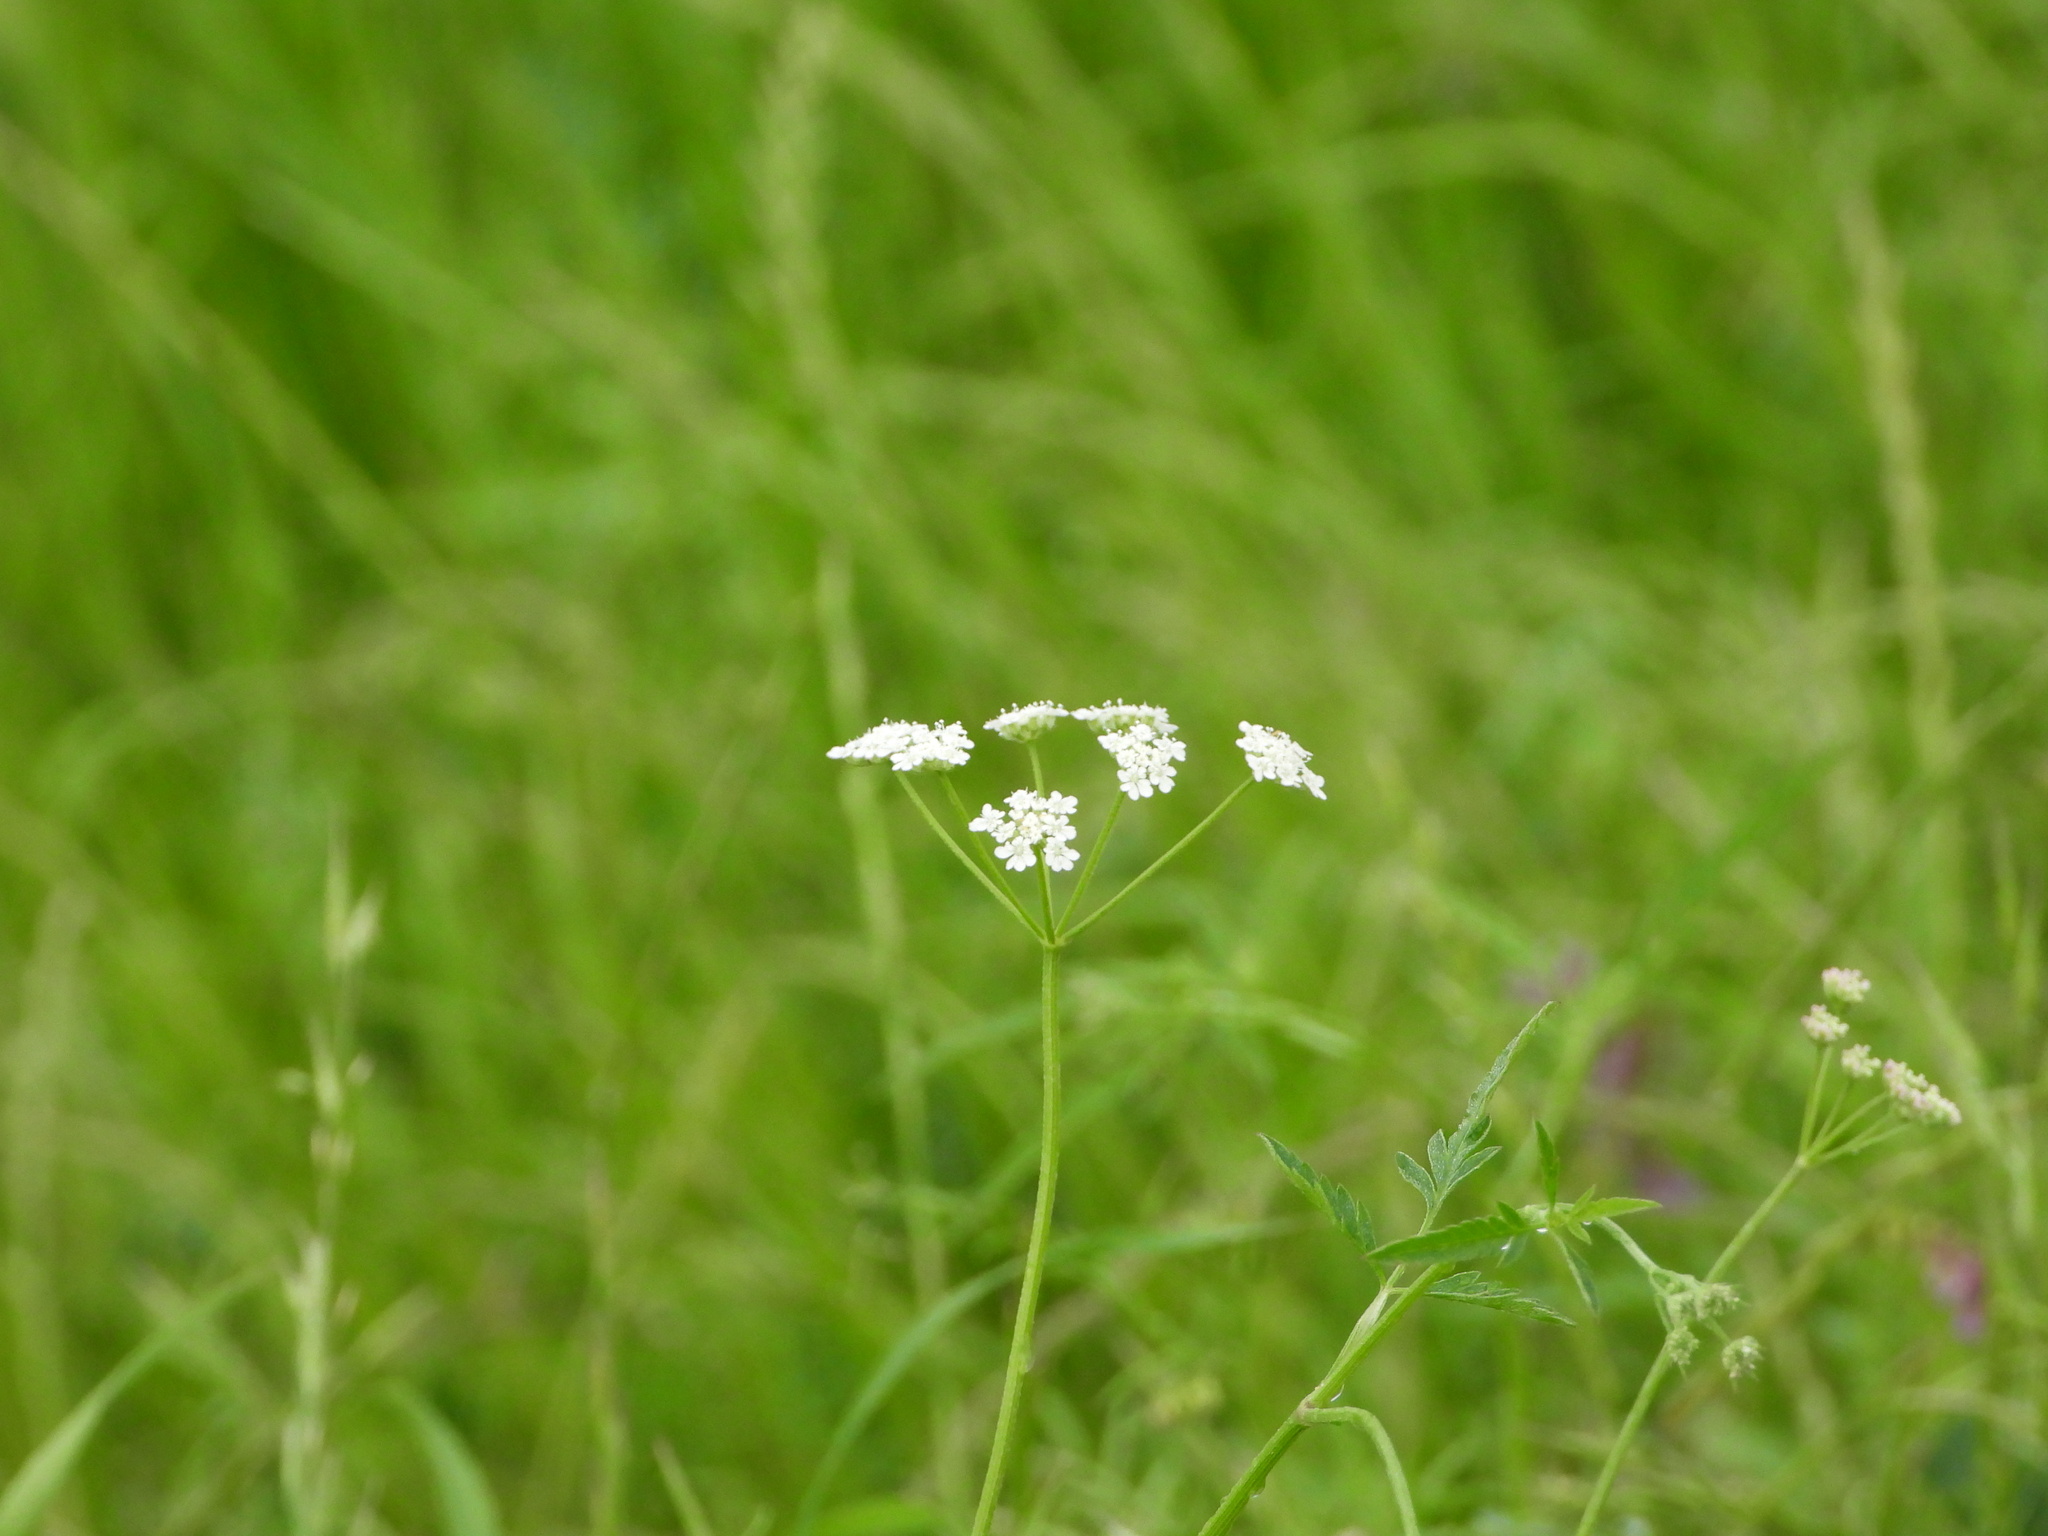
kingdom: Plantae
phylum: Tracheophyta
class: Magnoliopsida
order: Apiales
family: Apiaceae
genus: Torilis
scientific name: Torilis arvensis
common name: Spreading hedge-parsley
